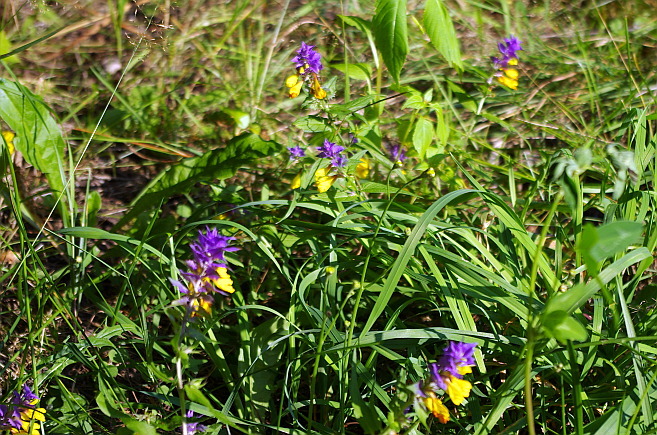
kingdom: Plantae
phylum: Tracheophyta
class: Magnoliopsida
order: Lamiales
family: Orobanchaceae
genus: Melampyrum
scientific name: Melampyrum nemorosum
